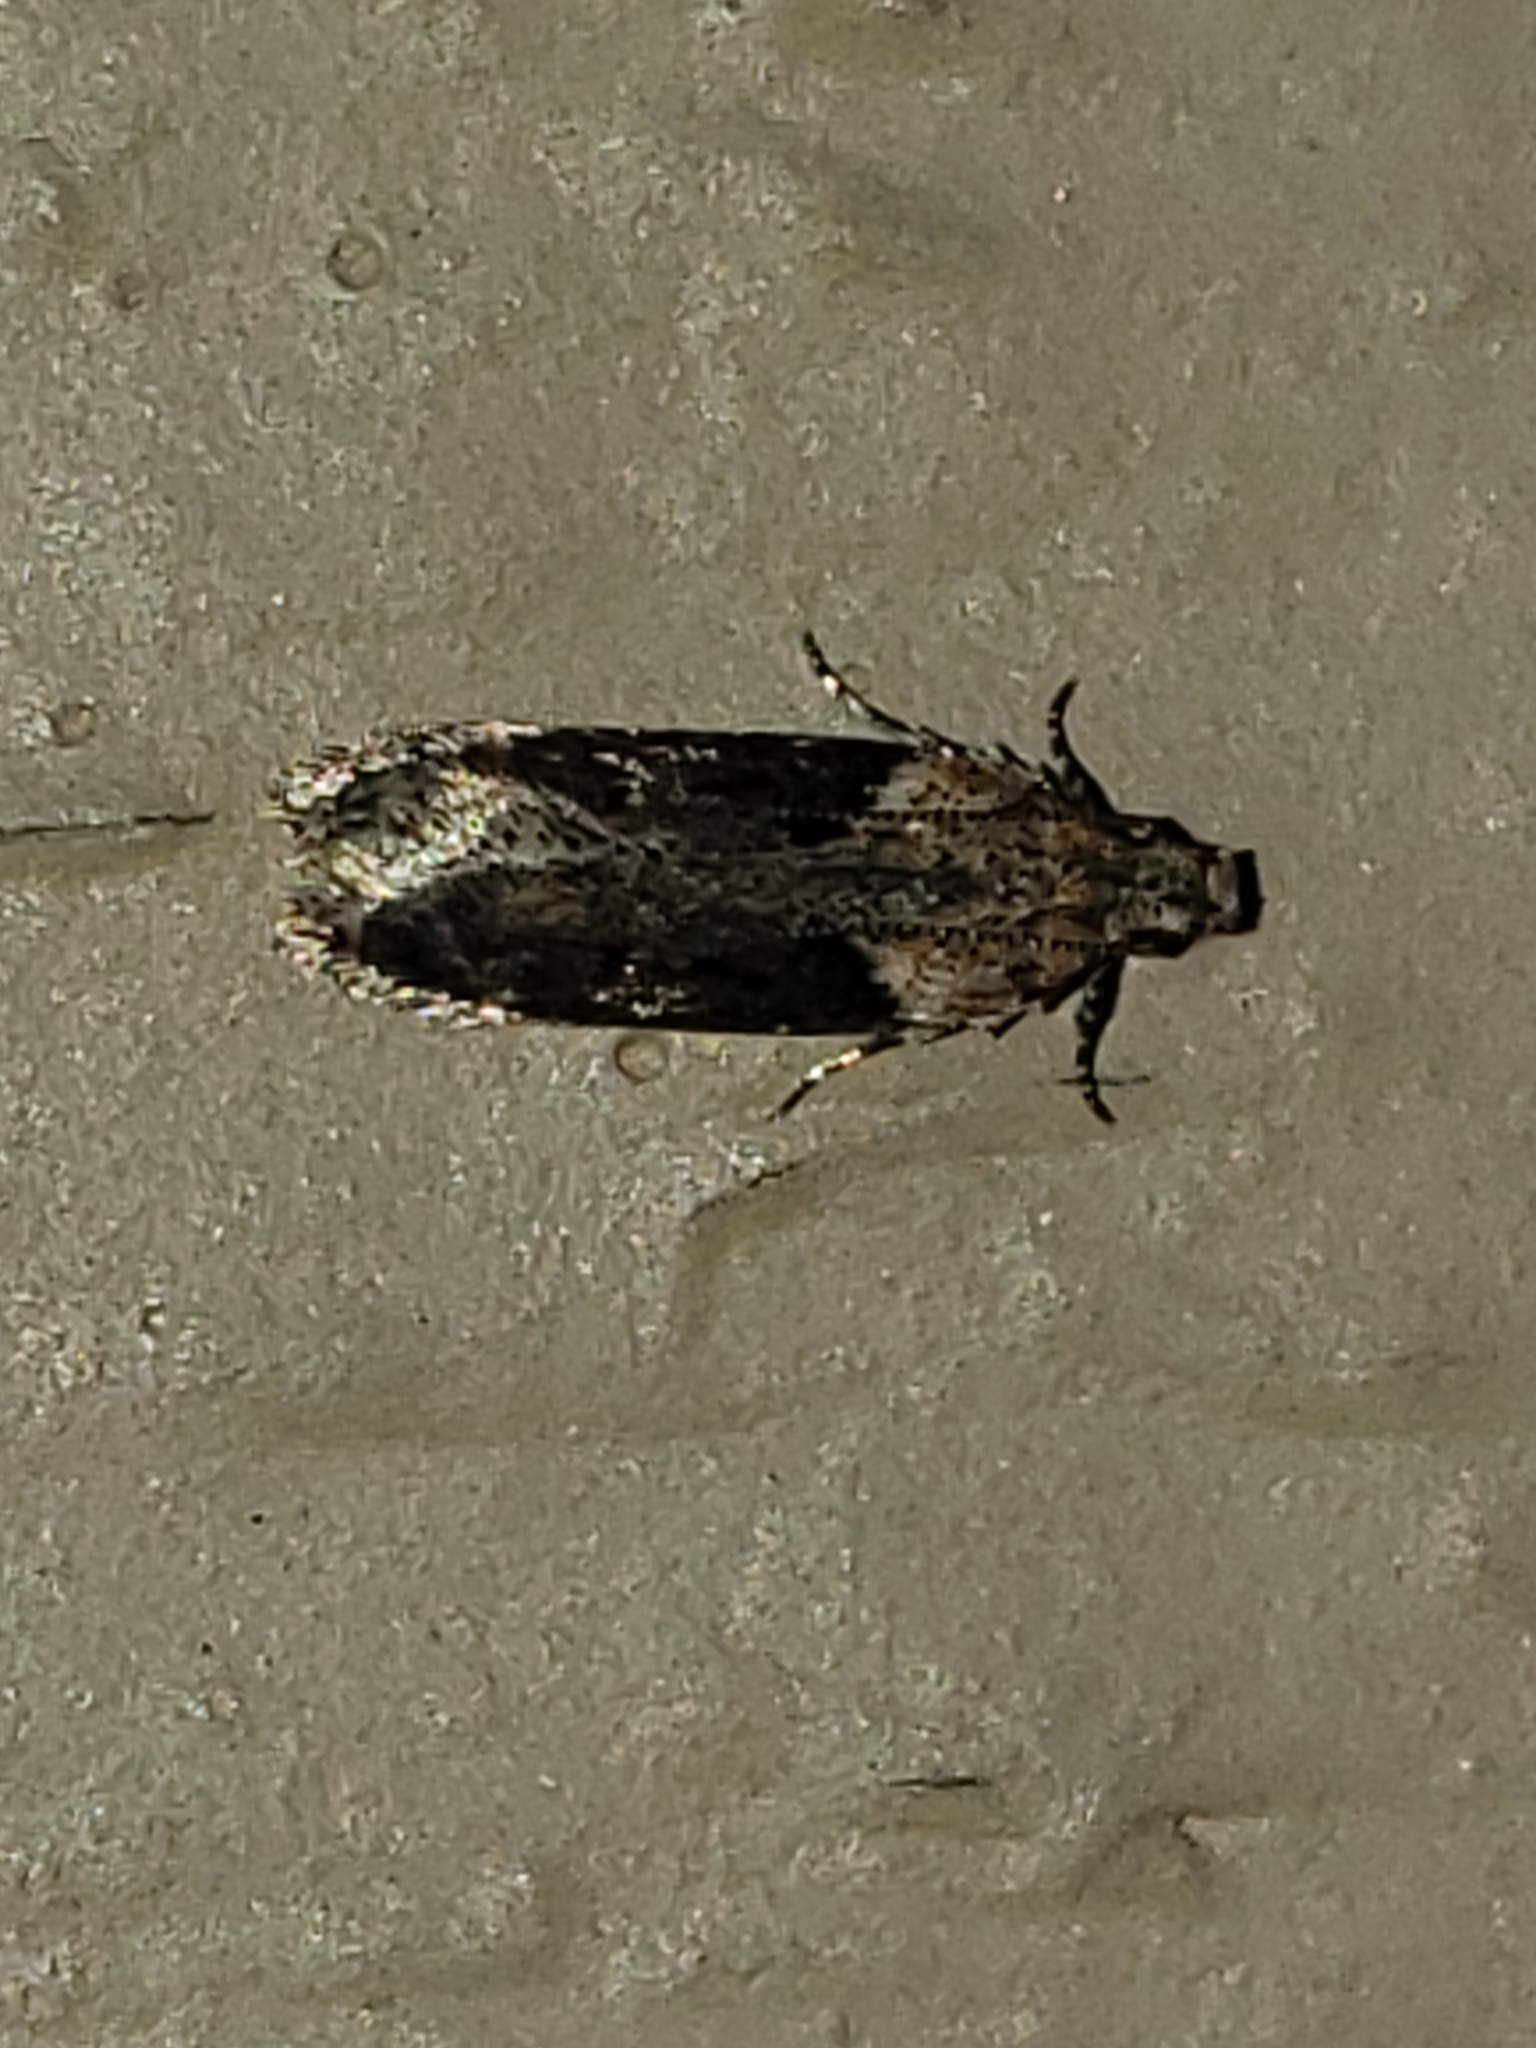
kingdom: Animalia
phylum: Arthropoda
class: Insecta
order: Lepidoptera
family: Gelechiidae
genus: Chionodes
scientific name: Chionodes mediofuscella
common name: Black-smudged chionodes moth
